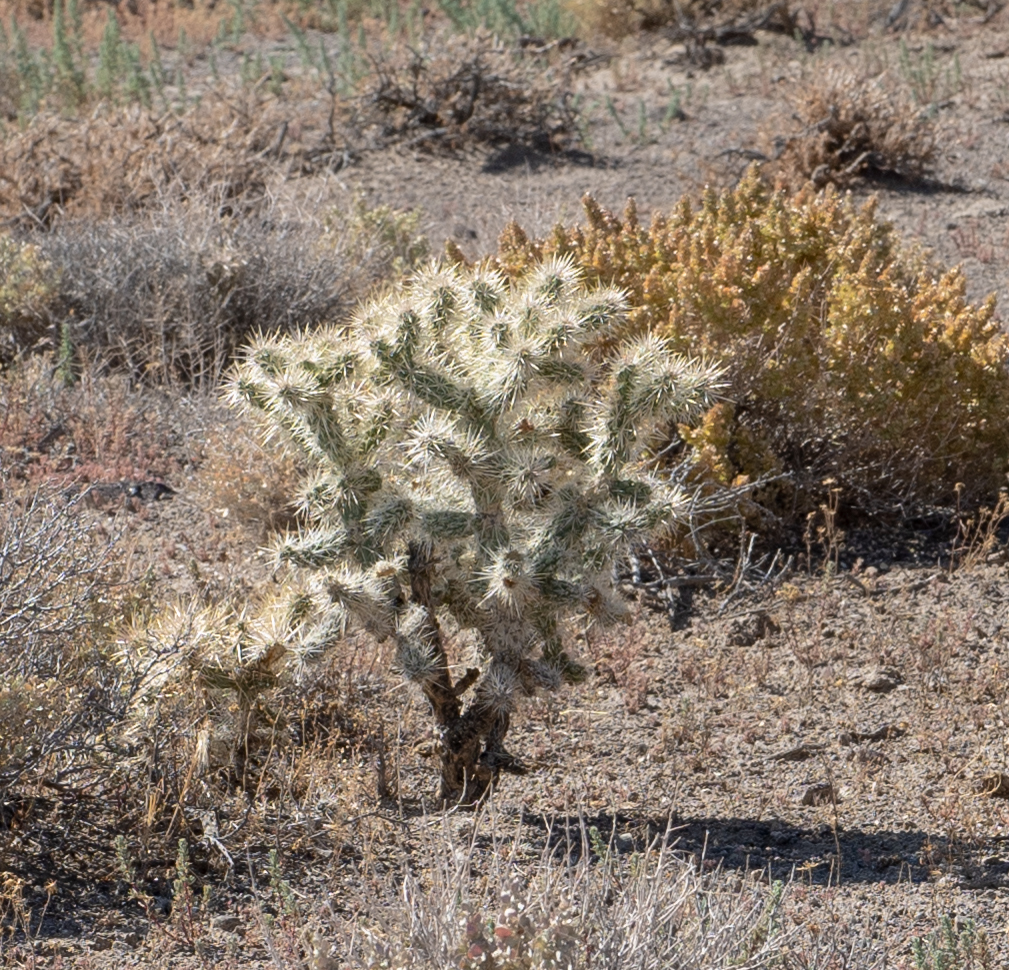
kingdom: Plantae
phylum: Tracheophyta
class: Magnoliopsida
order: Caryophyllales
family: Cactaceae
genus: Cylindropuntia
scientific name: Cylindropuntia echinocarpa
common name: Ground cholla
